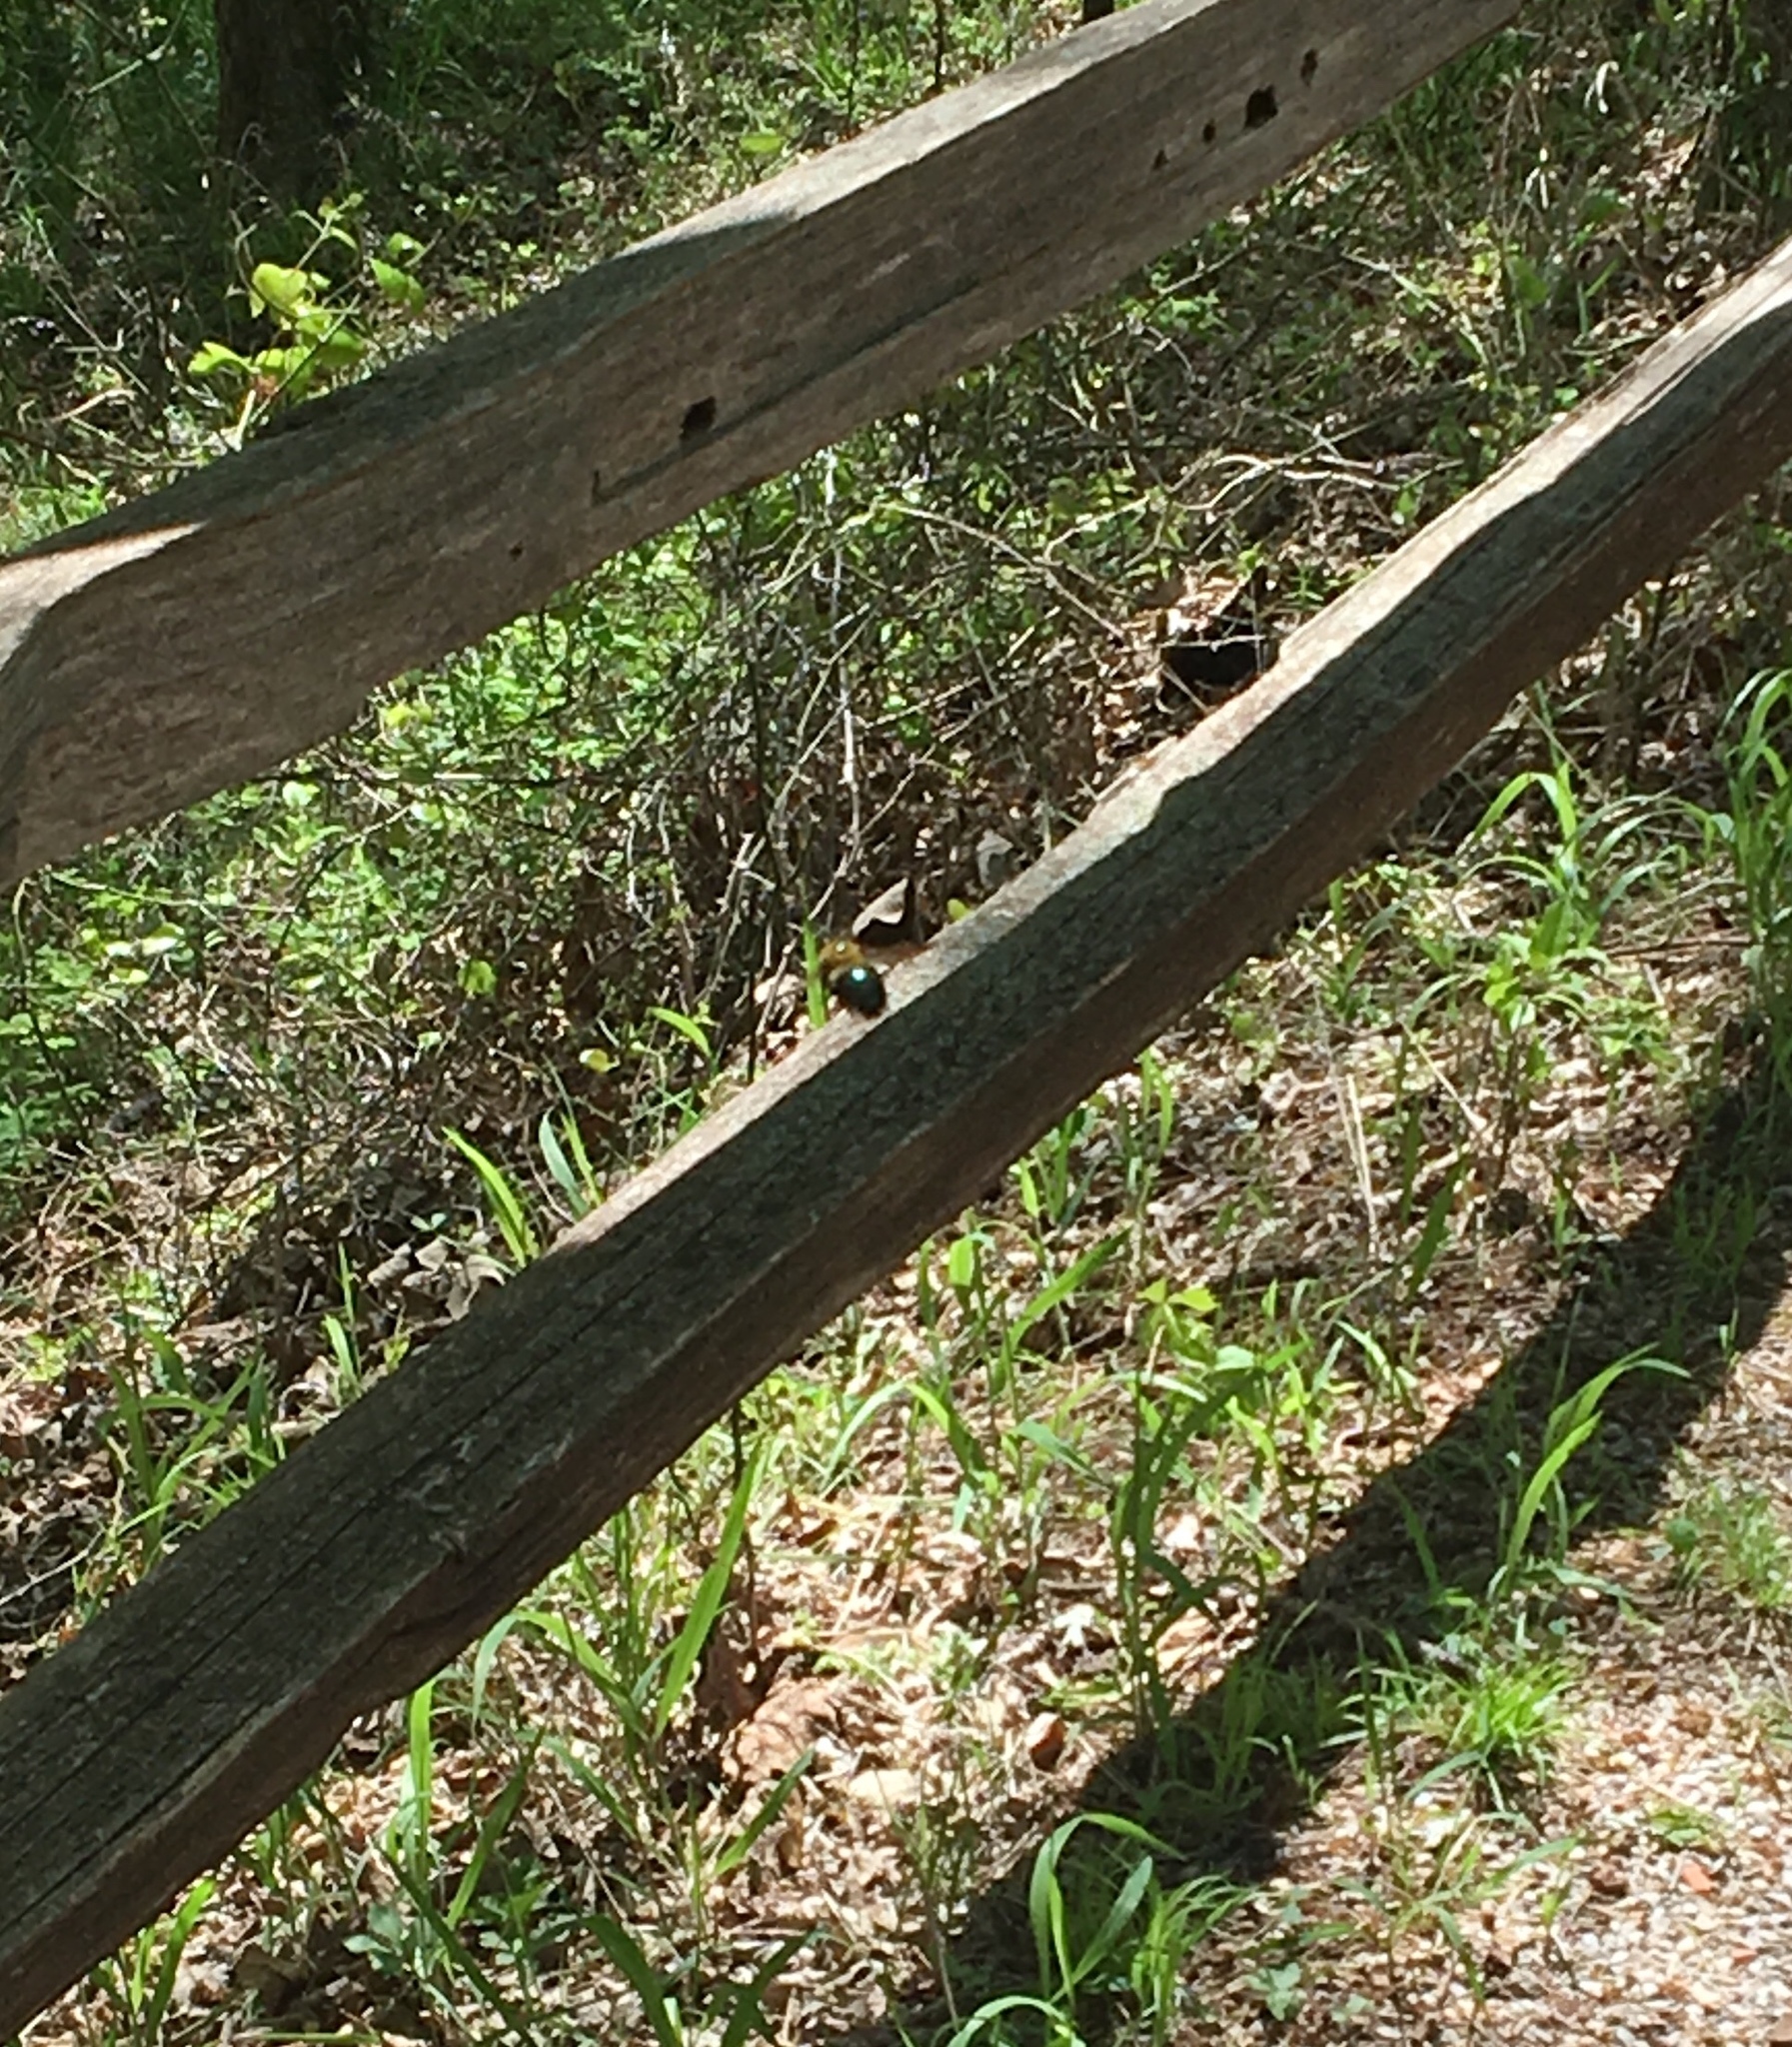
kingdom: Animalia
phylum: Arthropoda
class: Insecta
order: Hymenoptera
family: Apidae
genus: Xylocopa
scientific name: Xylocopa virginica
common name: Carpenter bee
